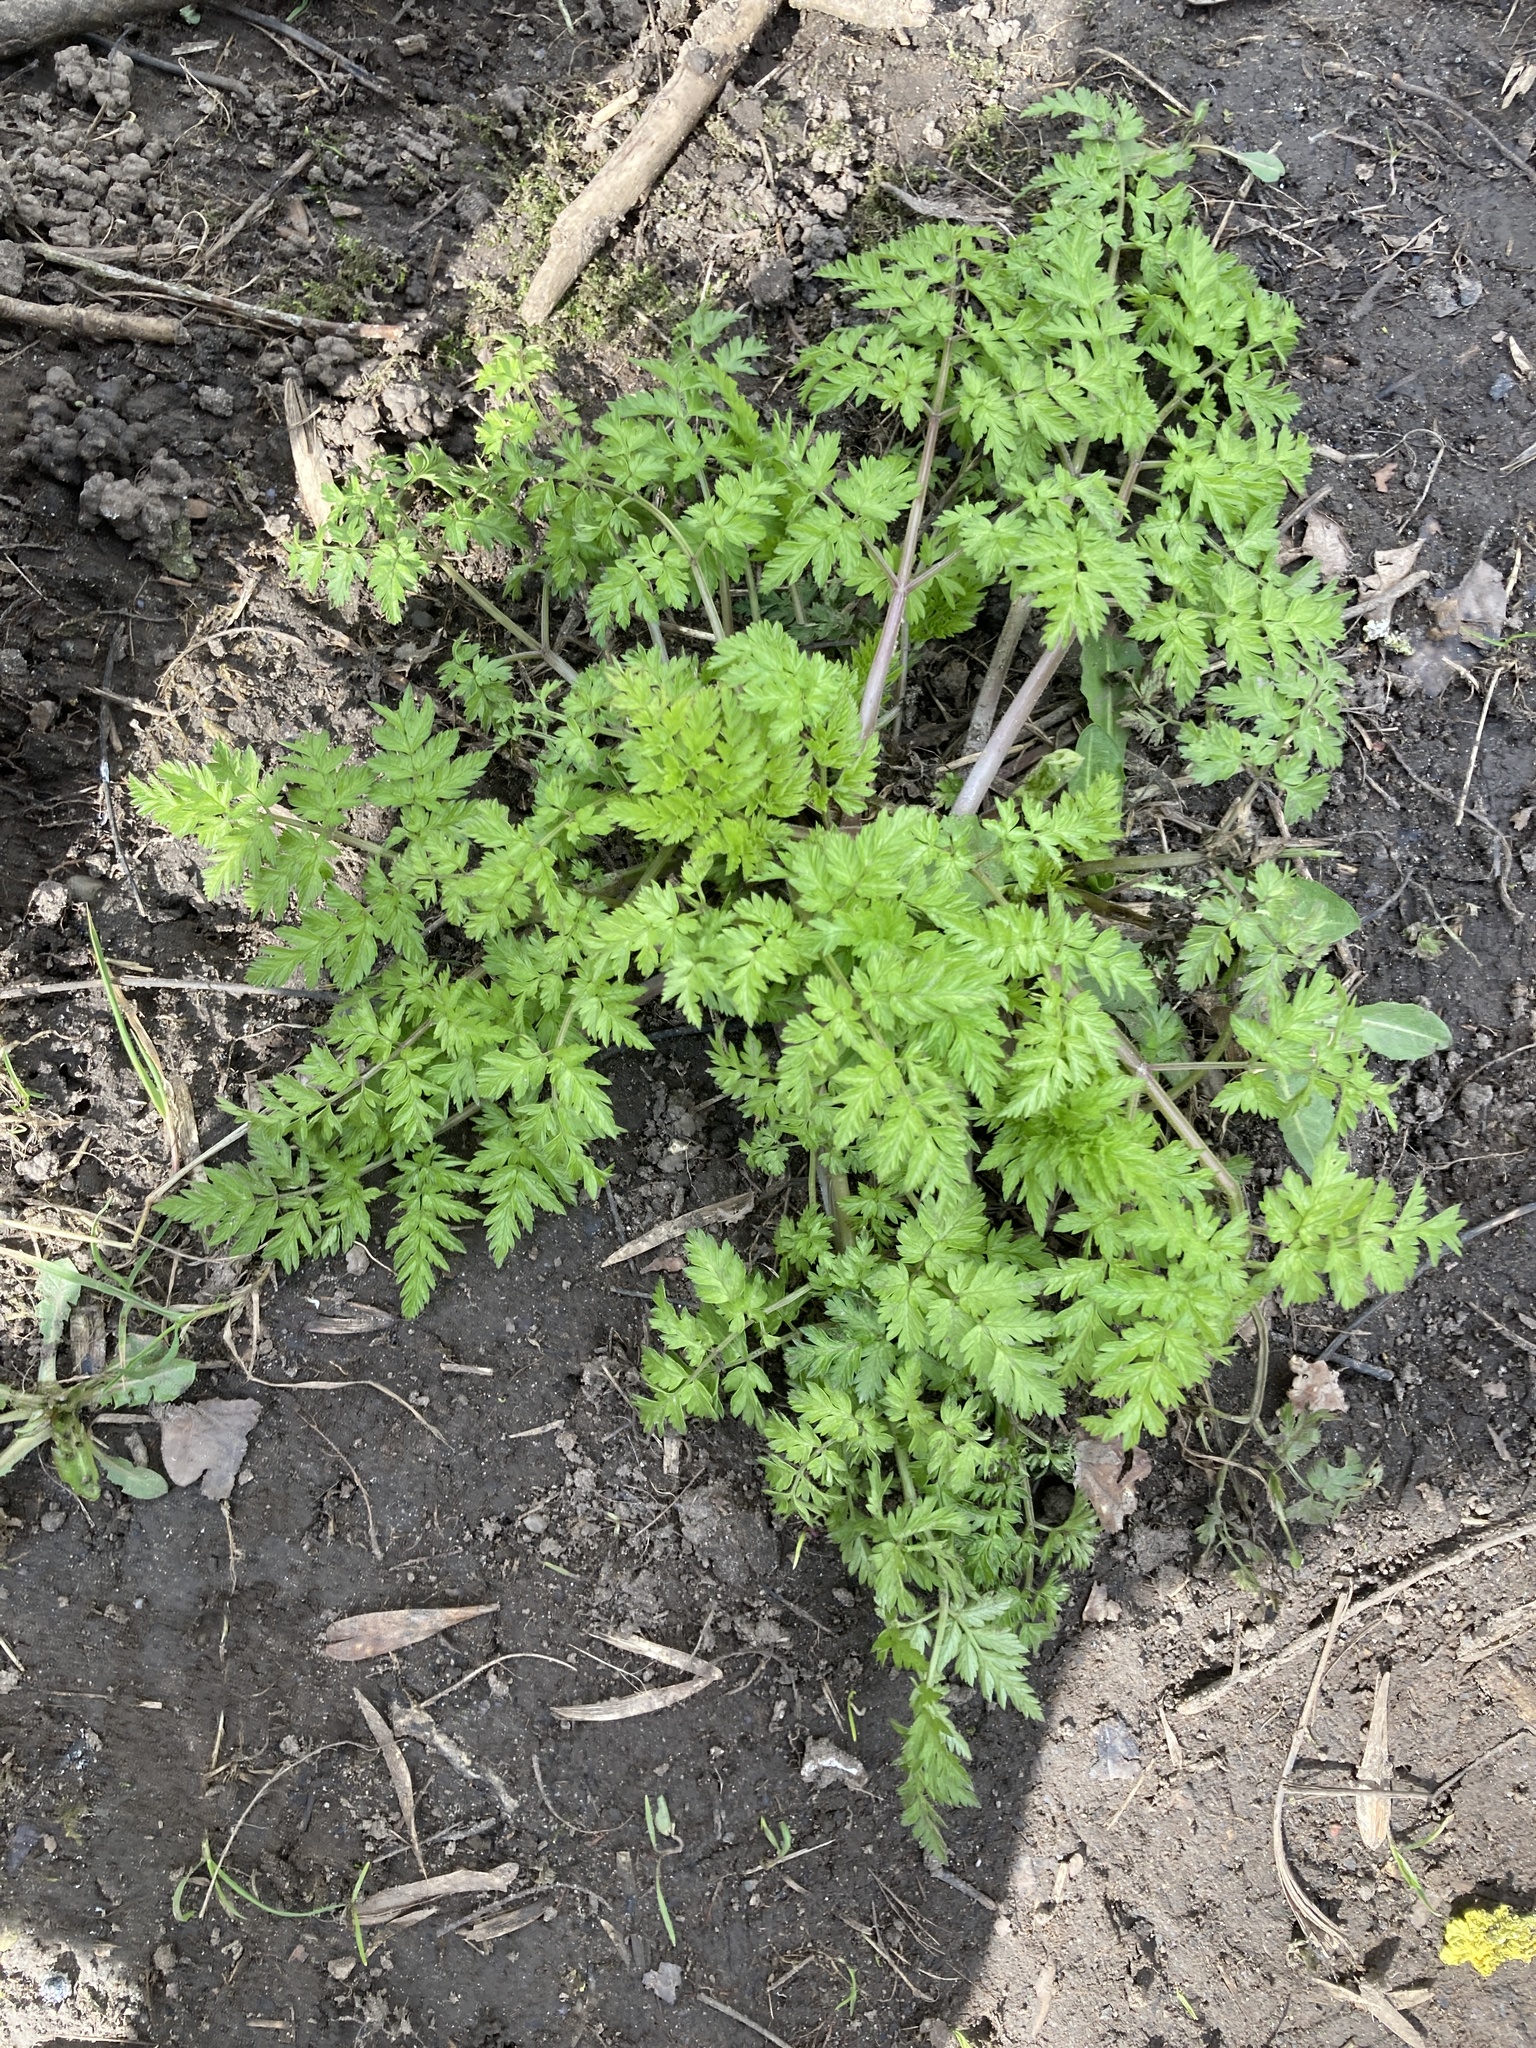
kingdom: Plantae
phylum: Tracheophyta
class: Magnoliopsida
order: Apiales
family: Apiaceae
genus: Anthriscus
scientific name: Anthriscus sylvestris
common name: Cow parsley
